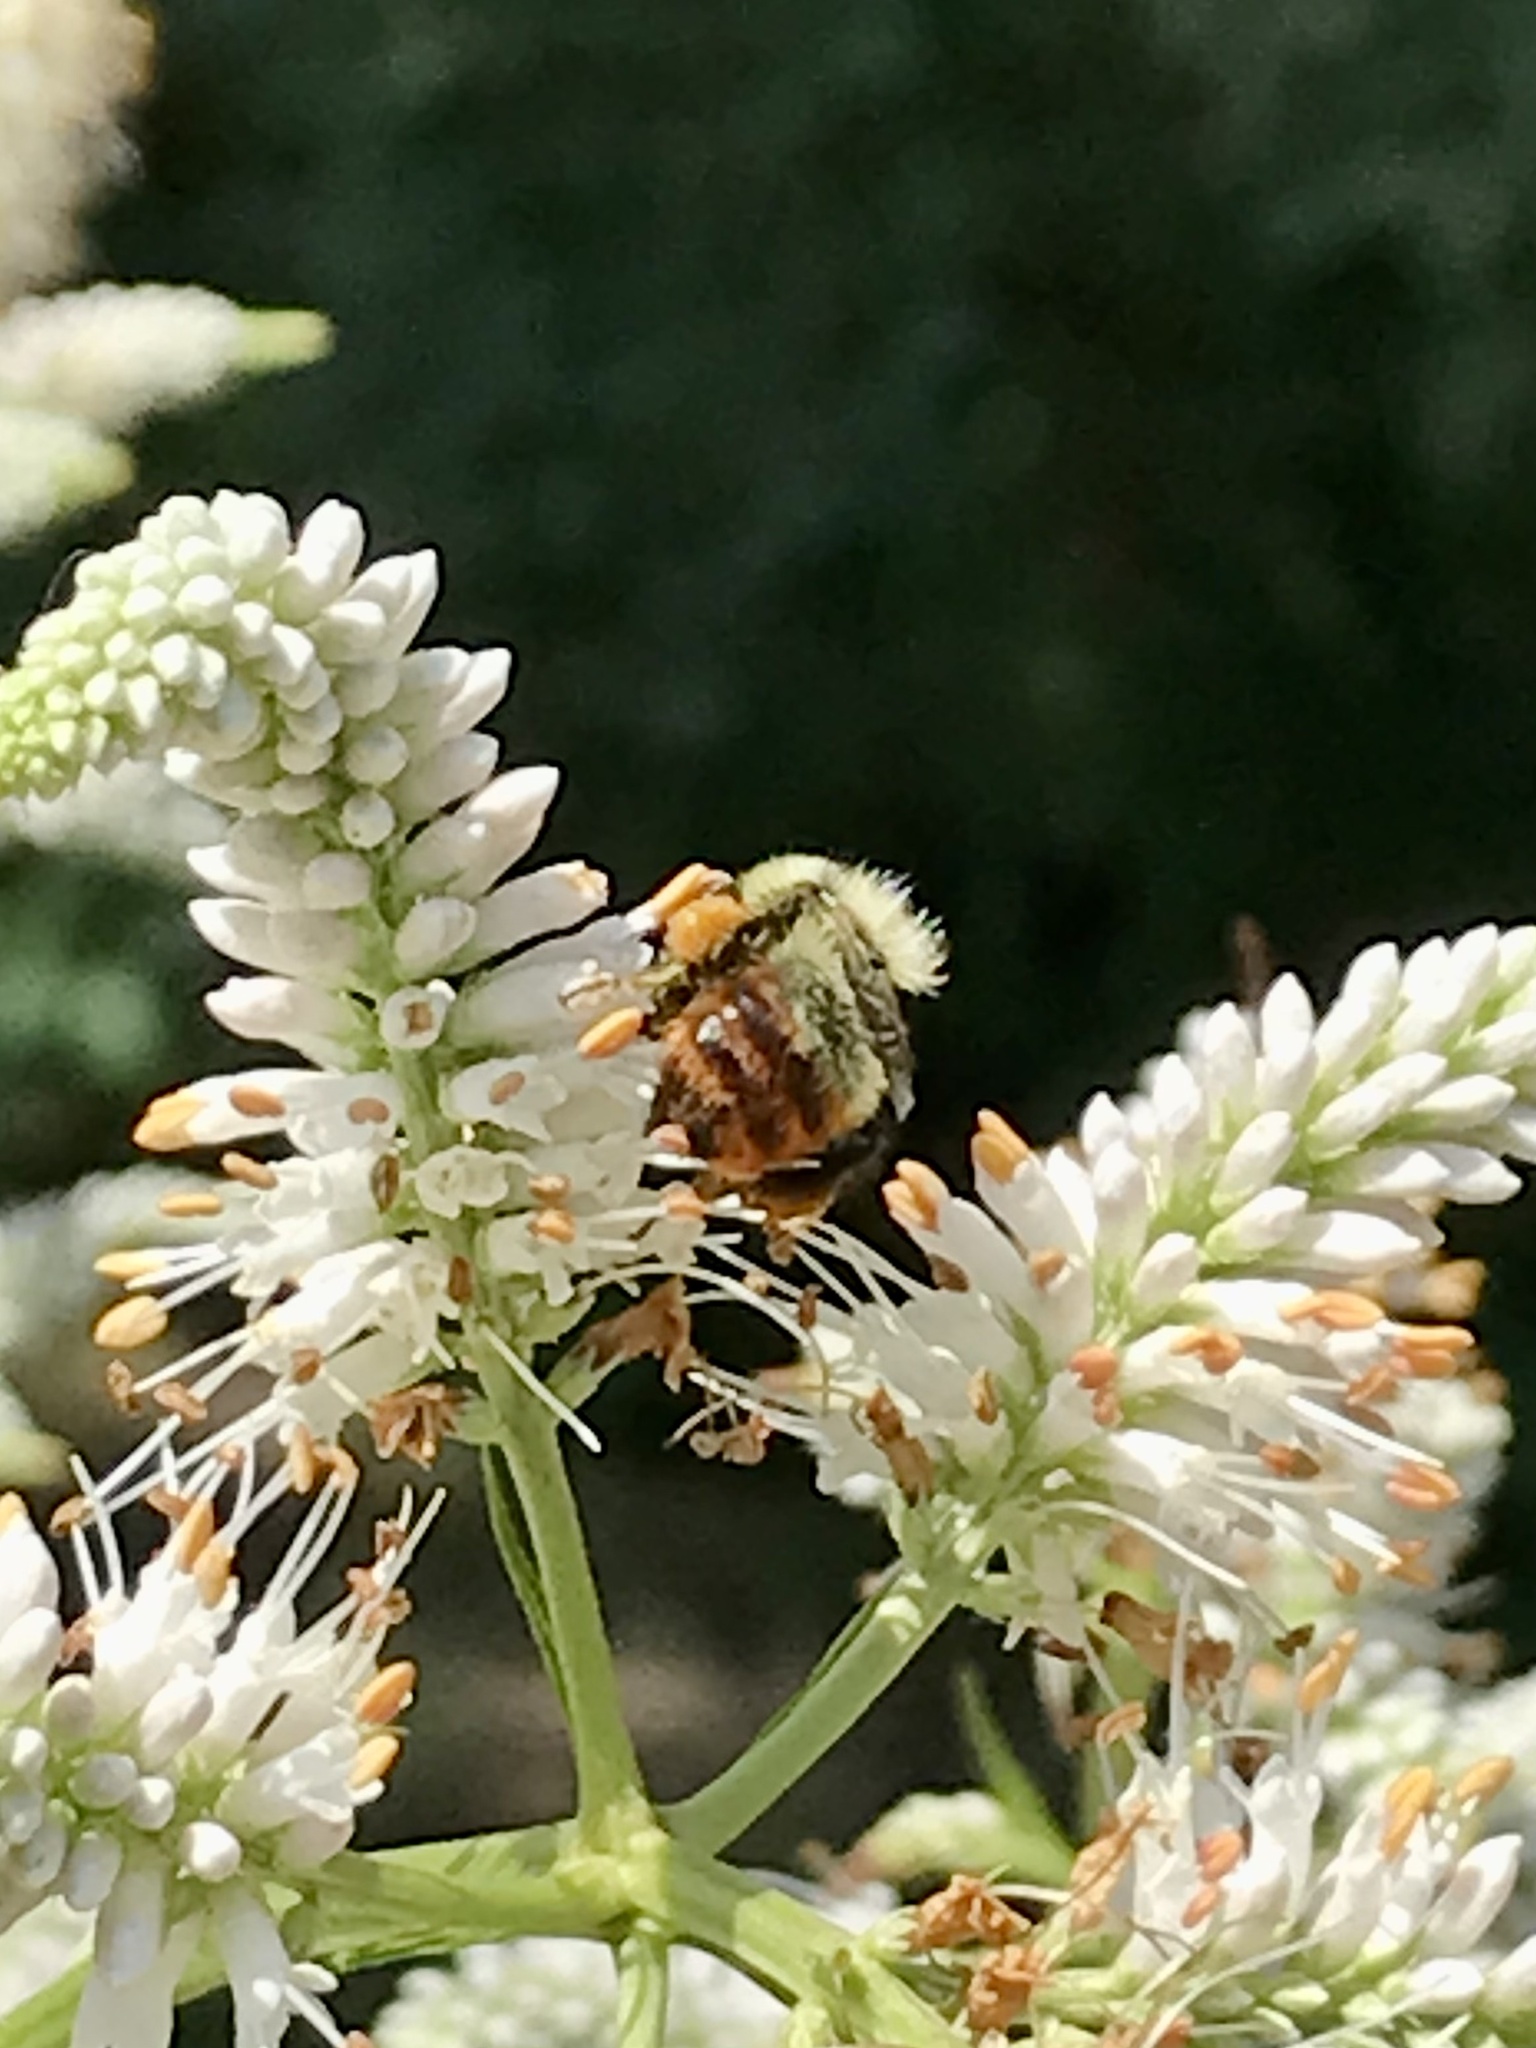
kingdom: Animalia
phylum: Arthropoda
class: Insecta
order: Hymenoptera
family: Apidae
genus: Bombus
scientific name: Bombus rufocinctus
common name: Red-belted bumble bee
